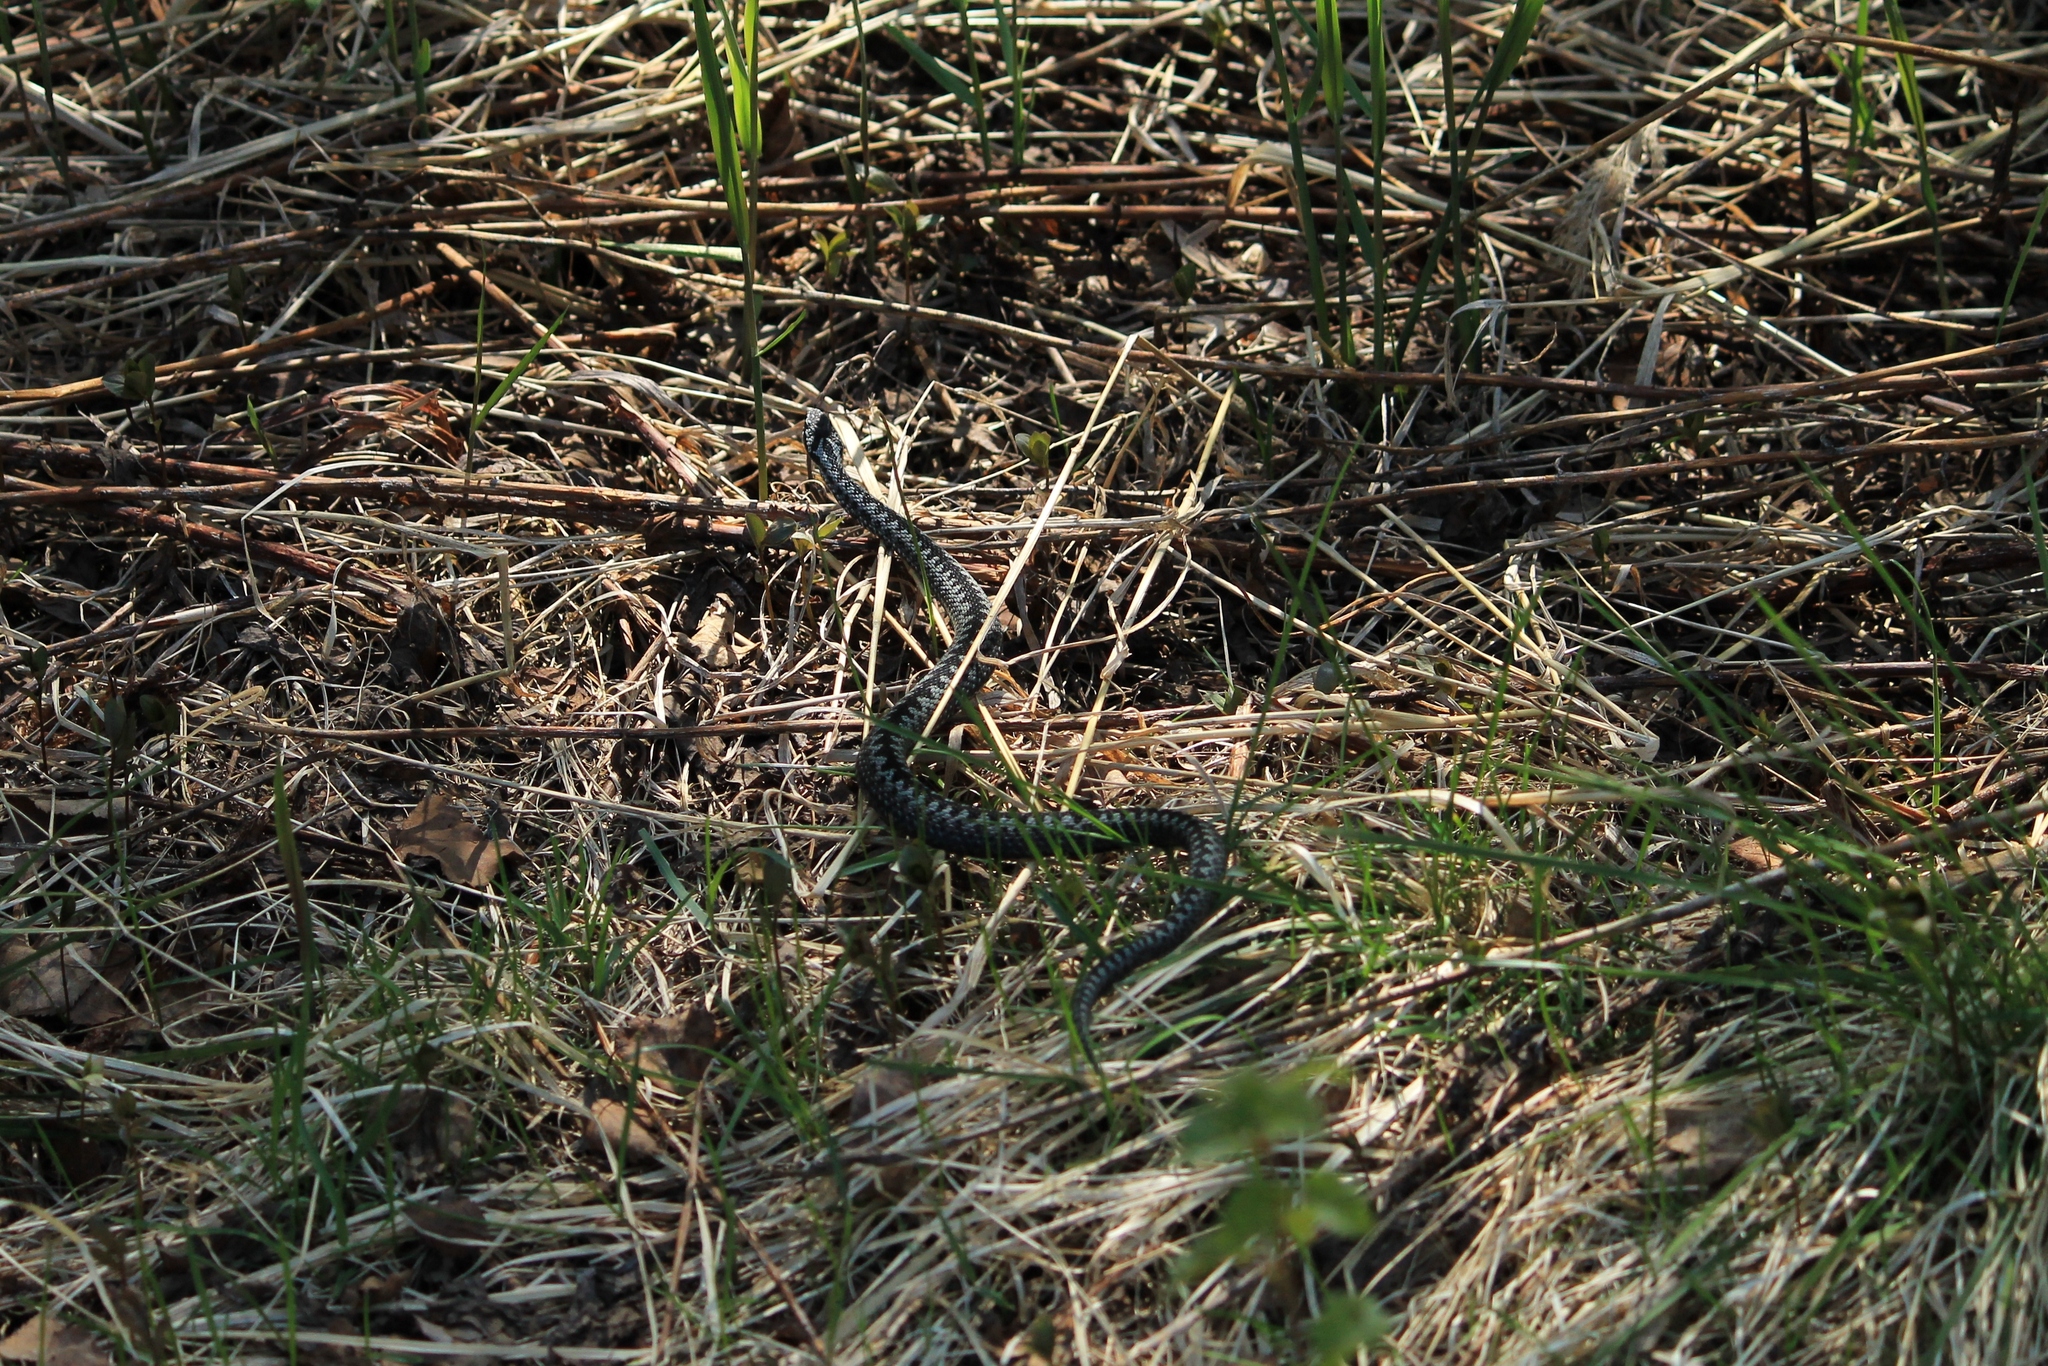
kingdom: Animalia
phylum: Chordata
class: Squamata
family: Viperidae
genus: Vipera
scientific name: Vipera berus
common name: Adder
